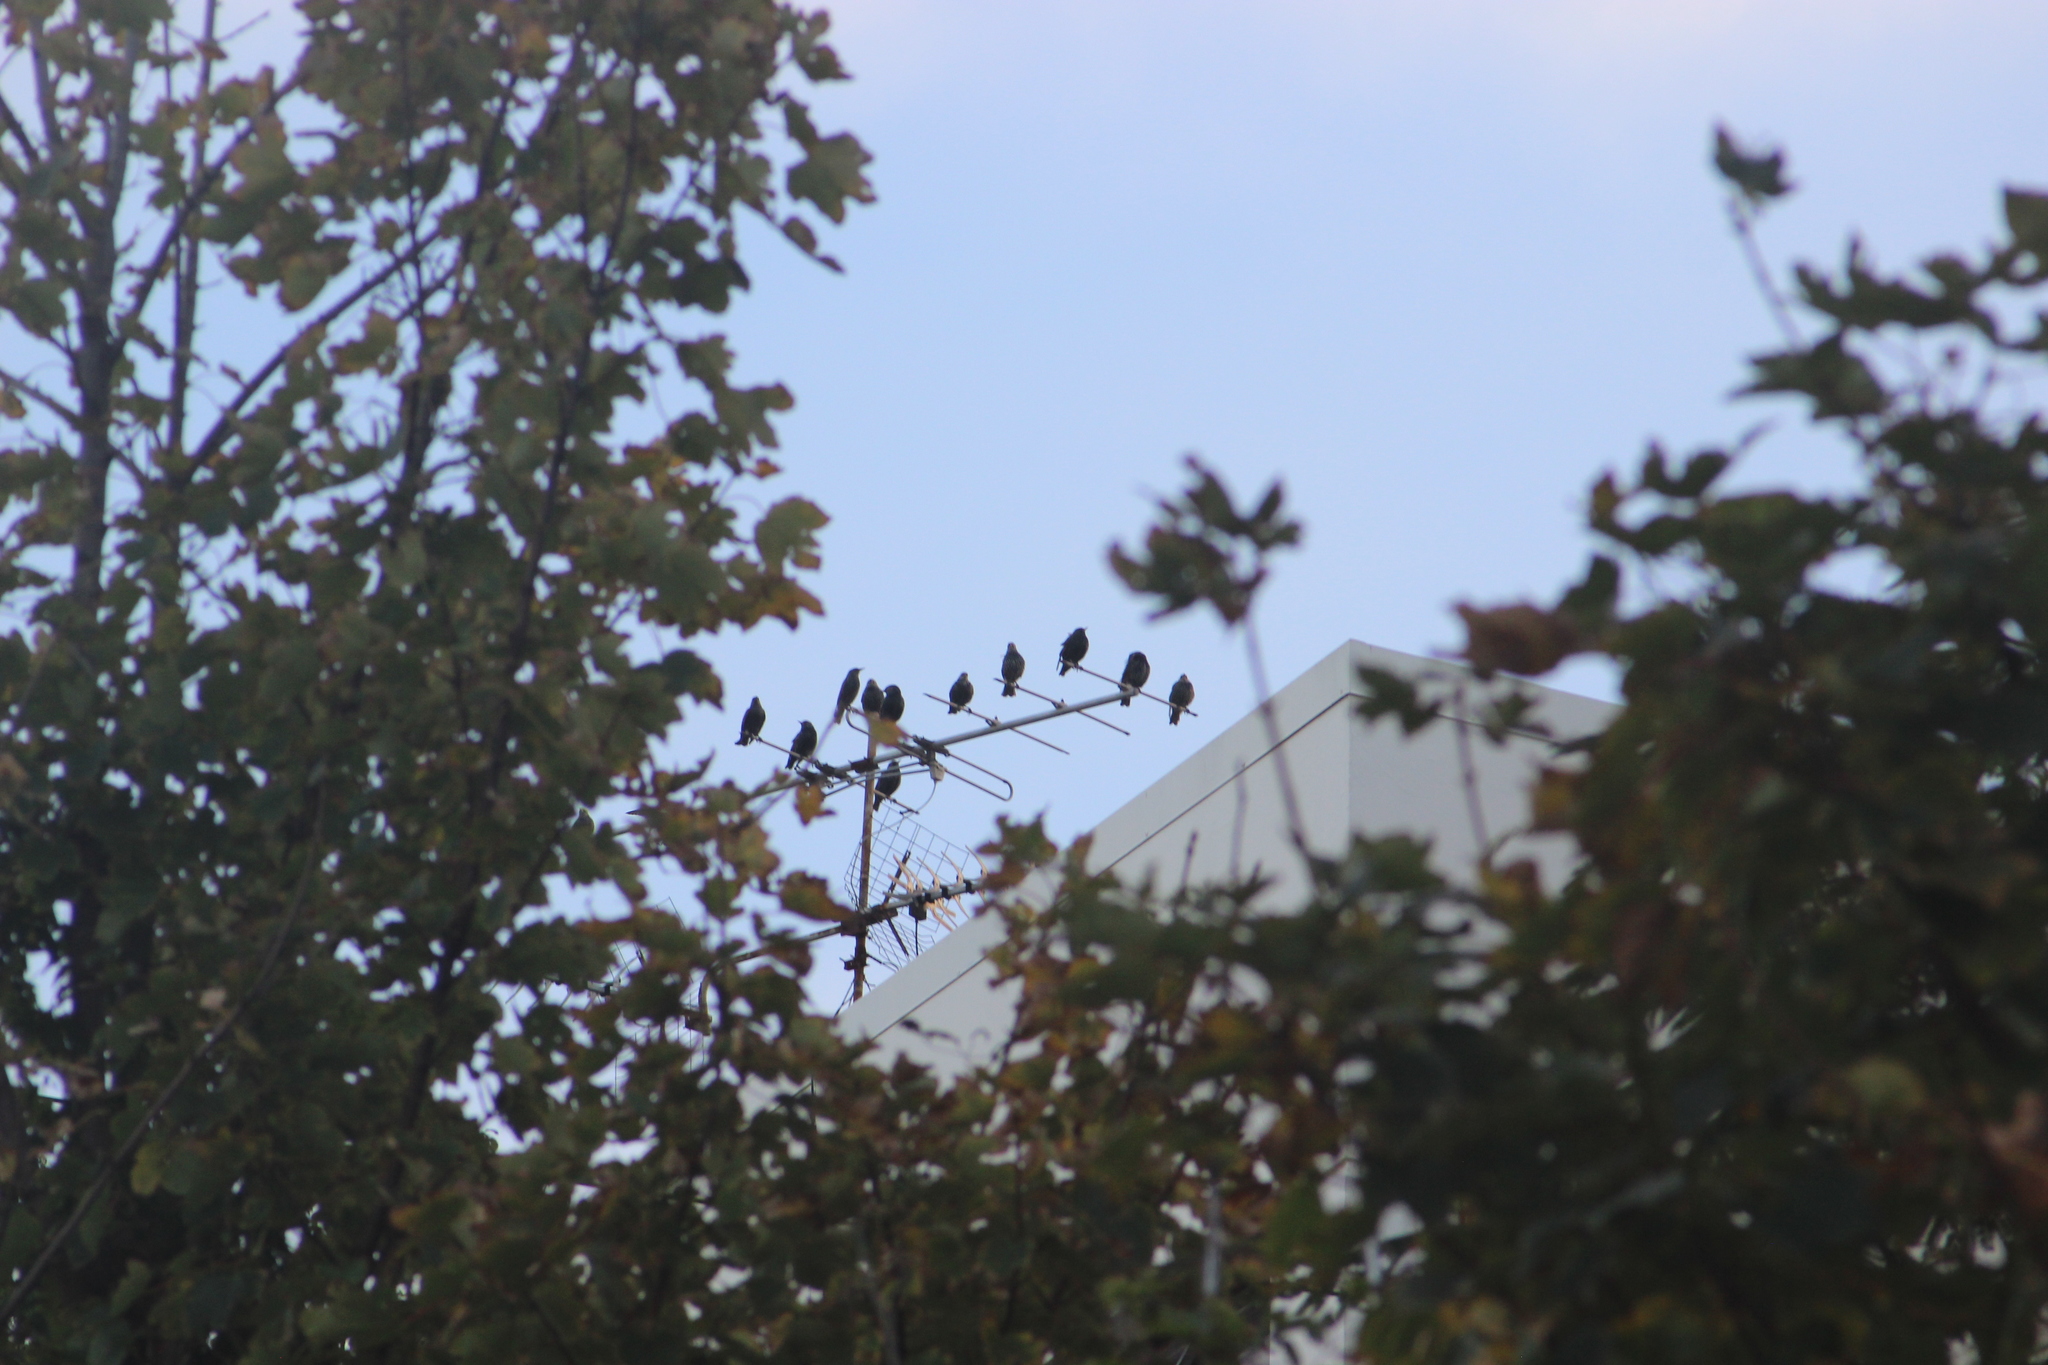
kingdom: Animalia
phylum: Chordata
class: Aves
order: Passeriformes
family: Sturnidae
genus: Sturnus
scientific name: Sturnus vulgaris
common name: Common starling
